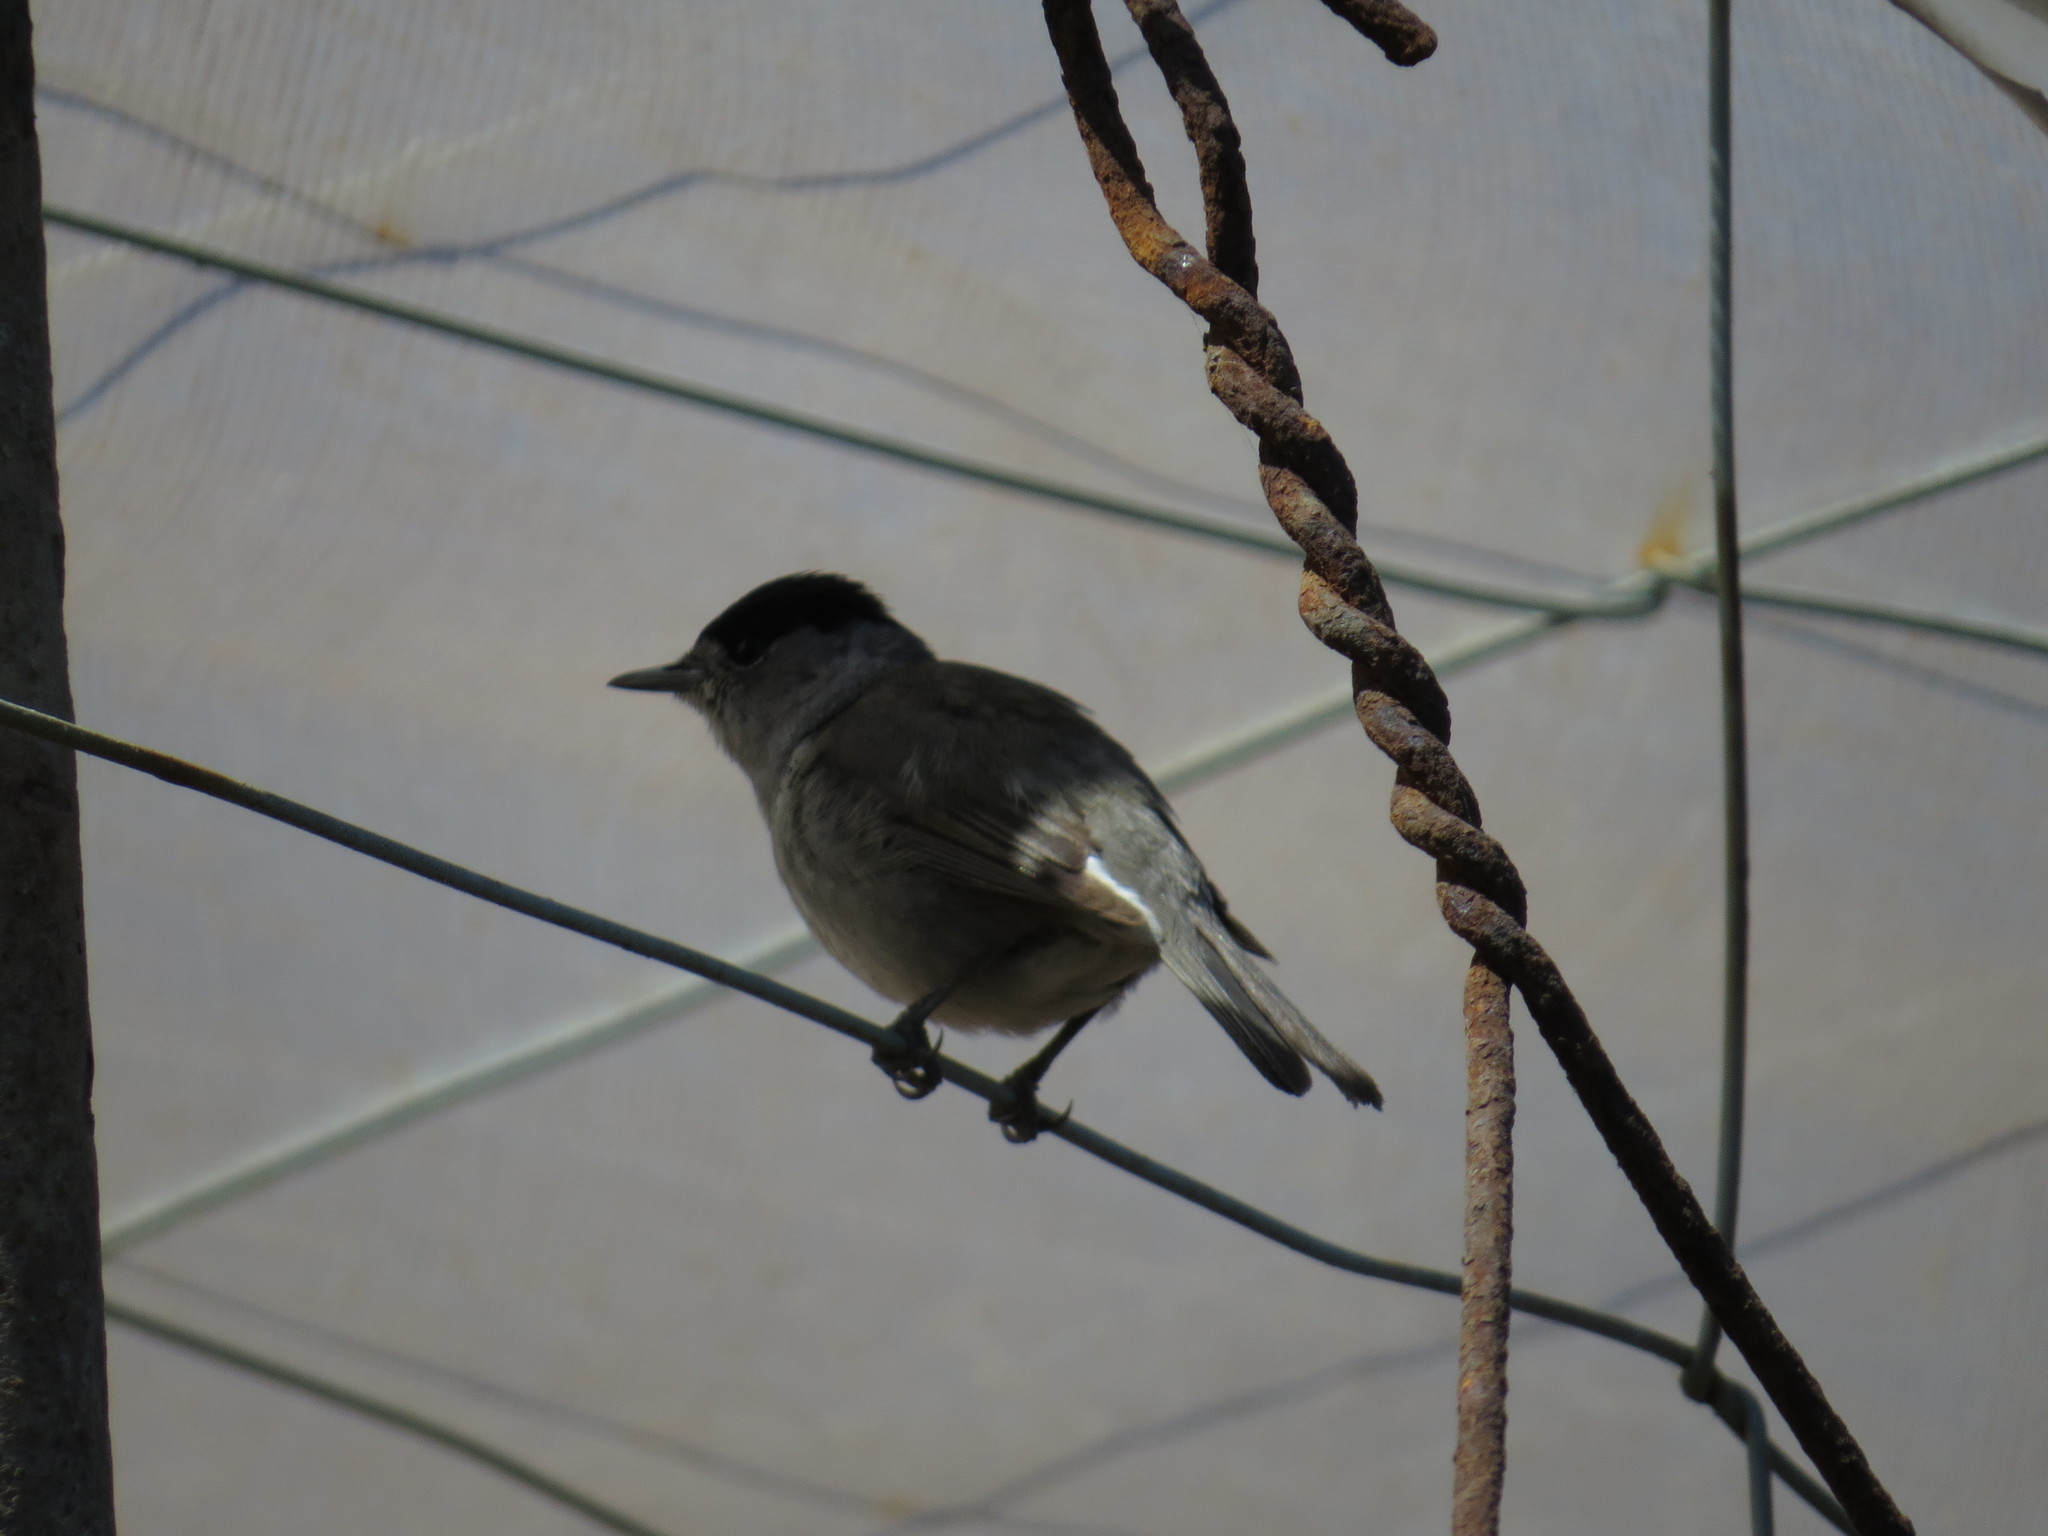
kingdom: Animalia
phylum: Chordata
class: Aves
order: Passeriformes
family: Sylviidae
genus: Sylvia
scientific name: Sylvia atricapilla
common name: Eurasian blackcap
